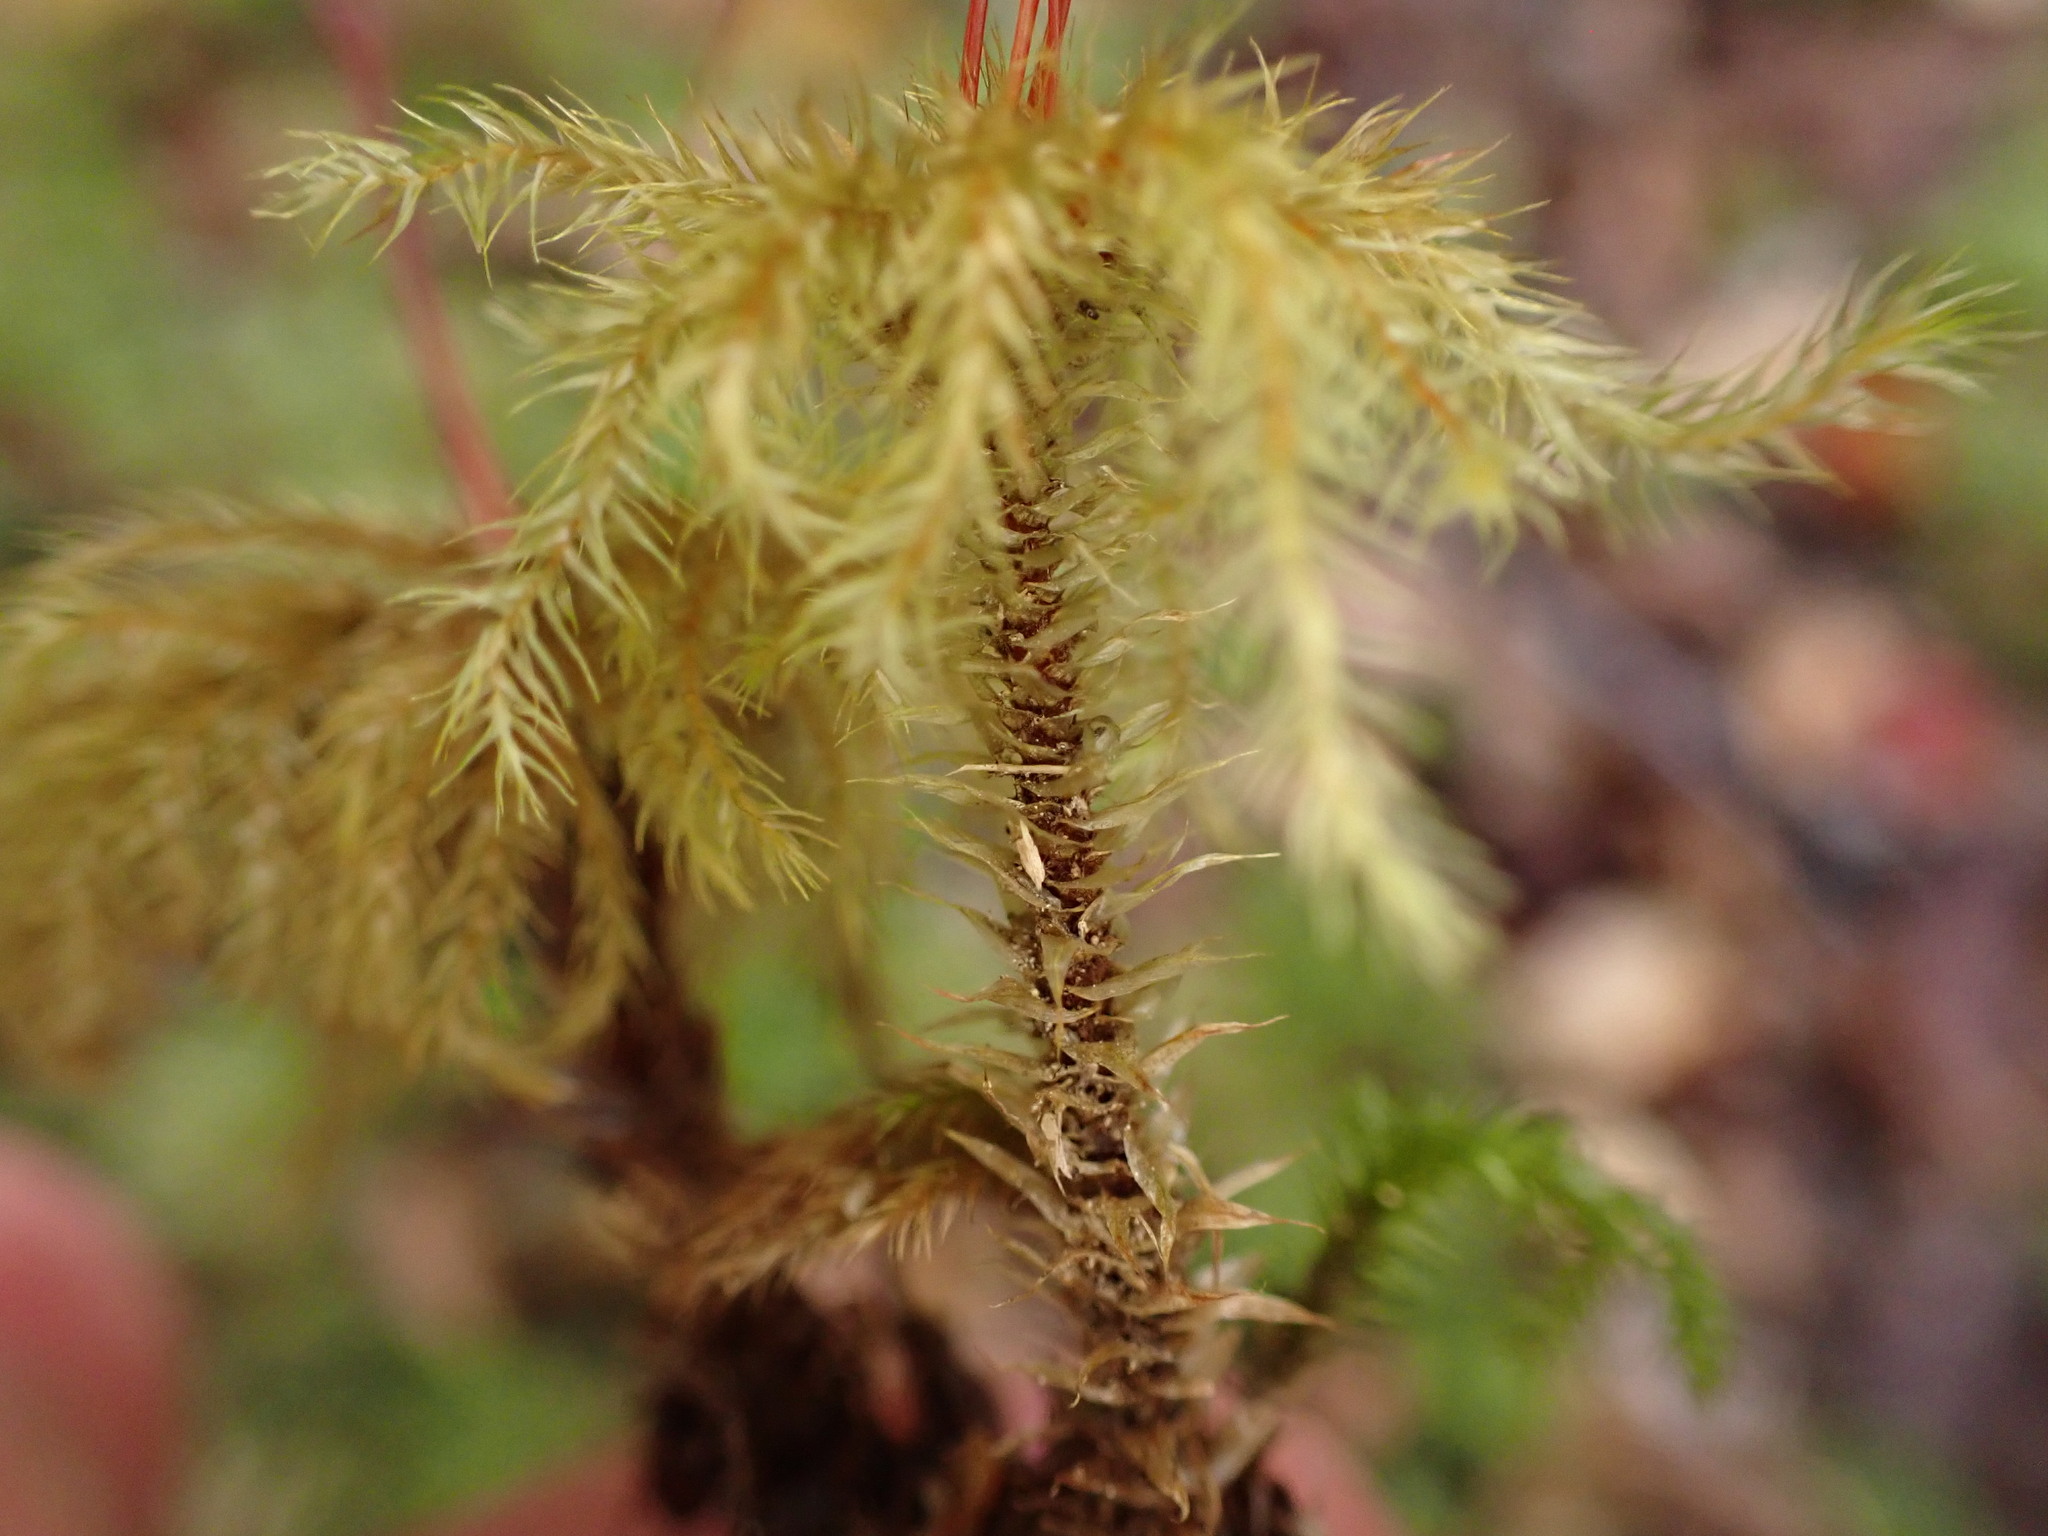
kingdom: Plantae
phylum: Bryophyta
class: Bryopsida
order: Hypnodendrales
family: Spiridentaceae
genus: Mniodendron
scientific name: Mniodendron comatum
